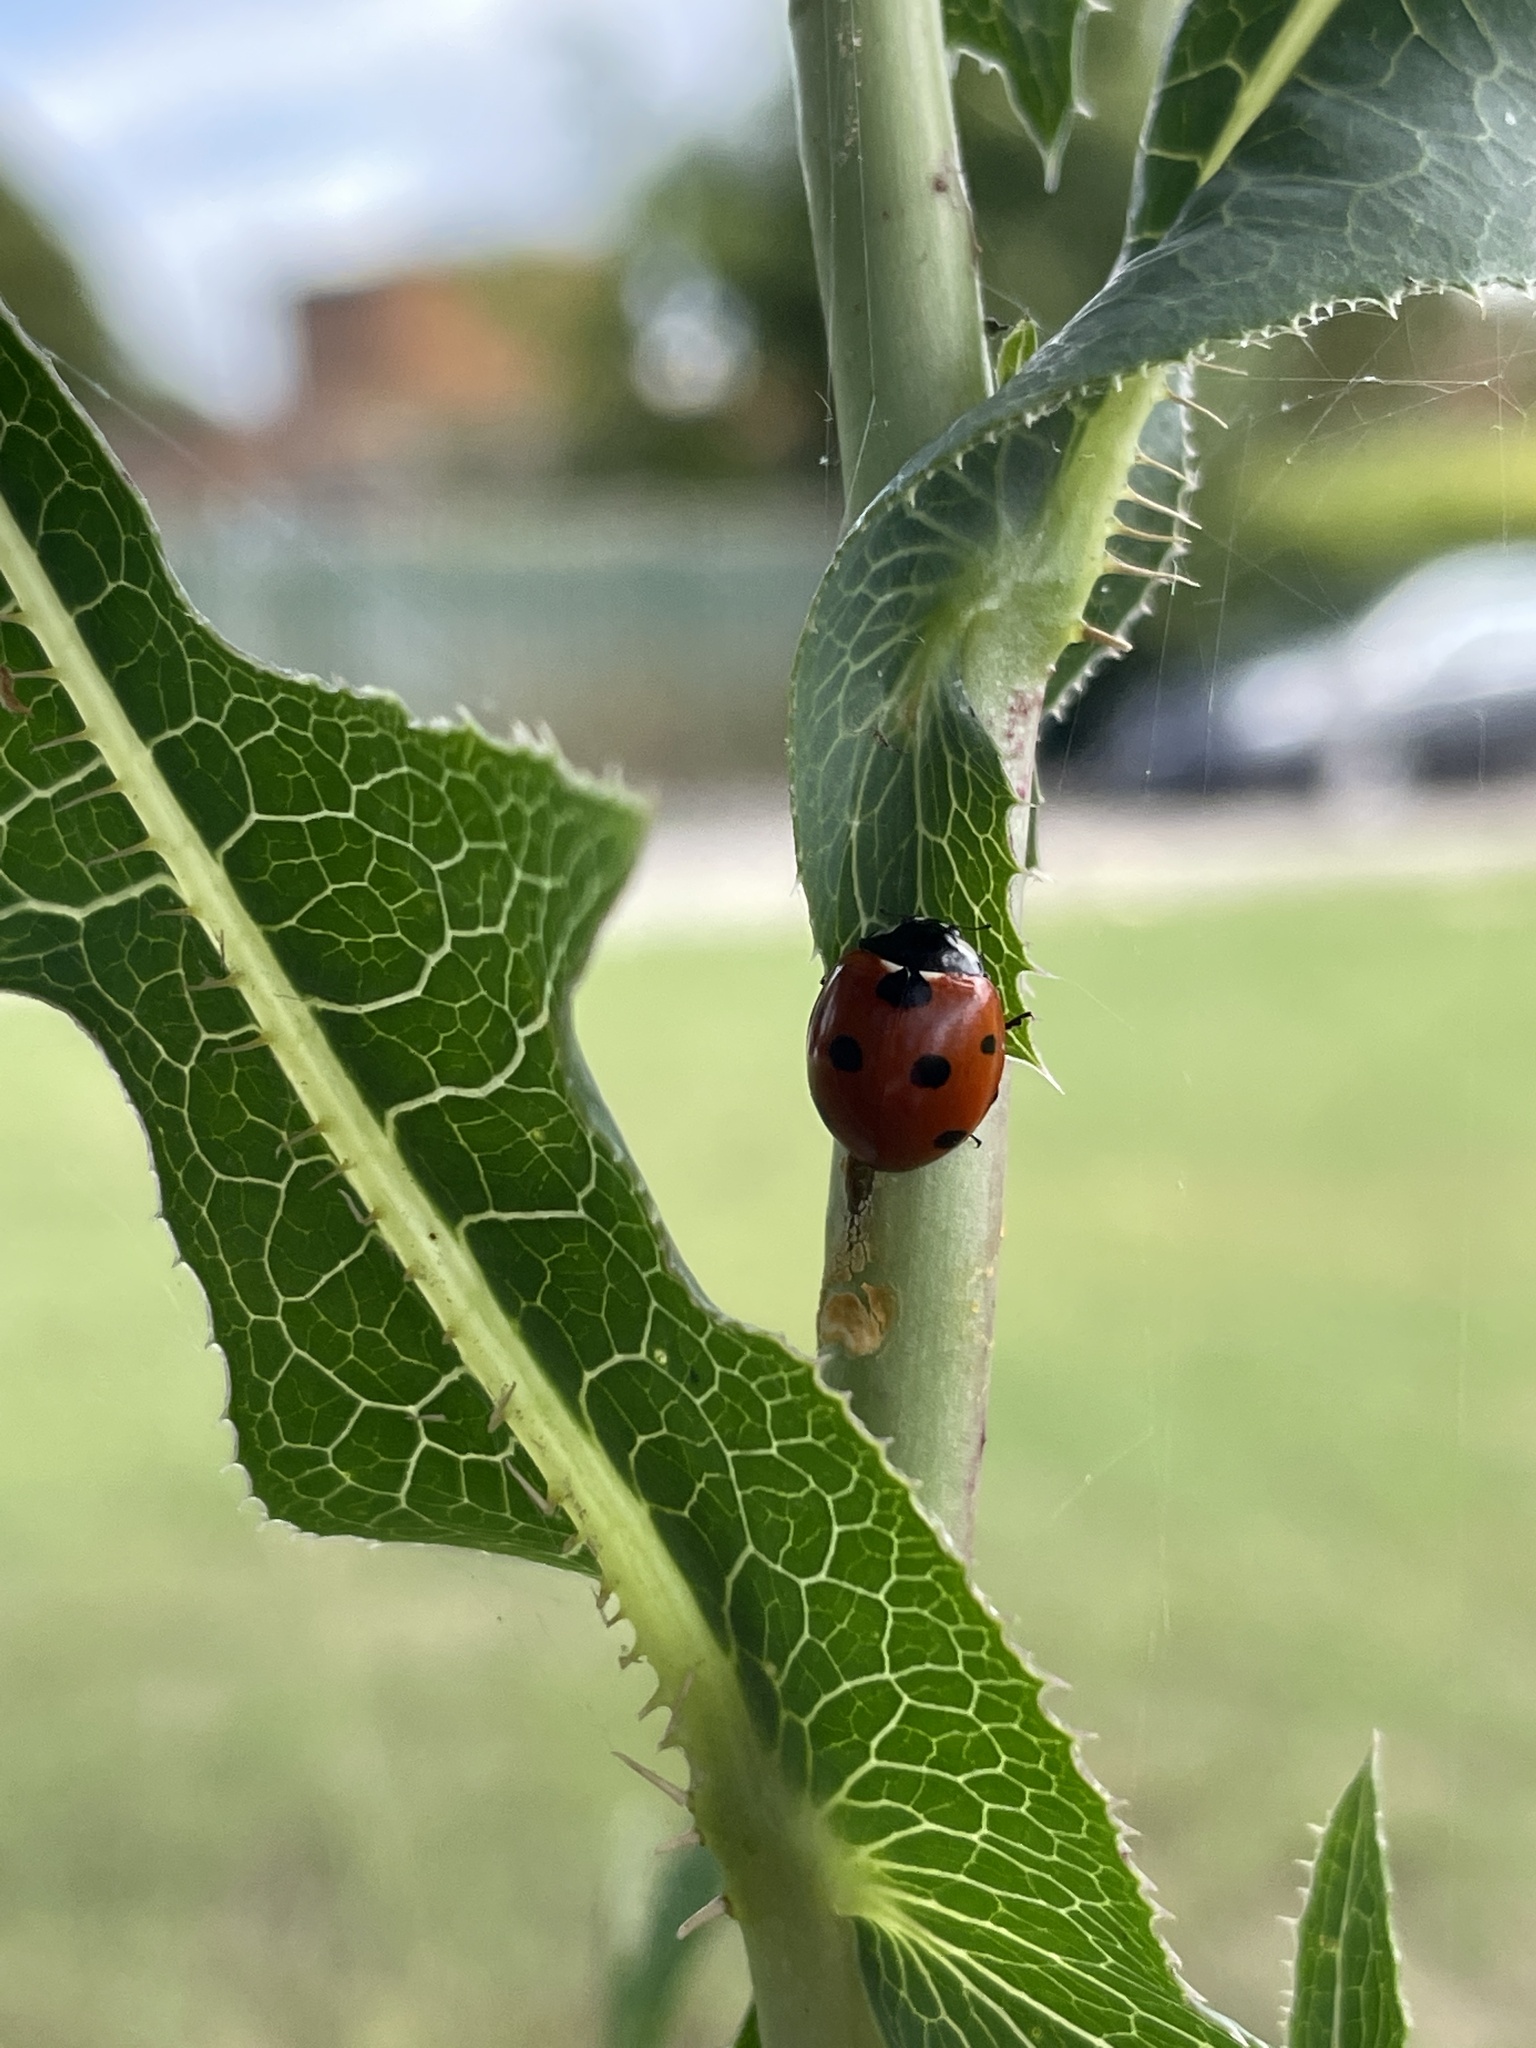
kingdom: Animalia
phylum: Arthropoda
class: Insecta
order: Coleoptera
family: Coccinellidae
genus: Coccinella
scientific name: Coccinella septempunctata
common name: Sevenspotted lady beetle
